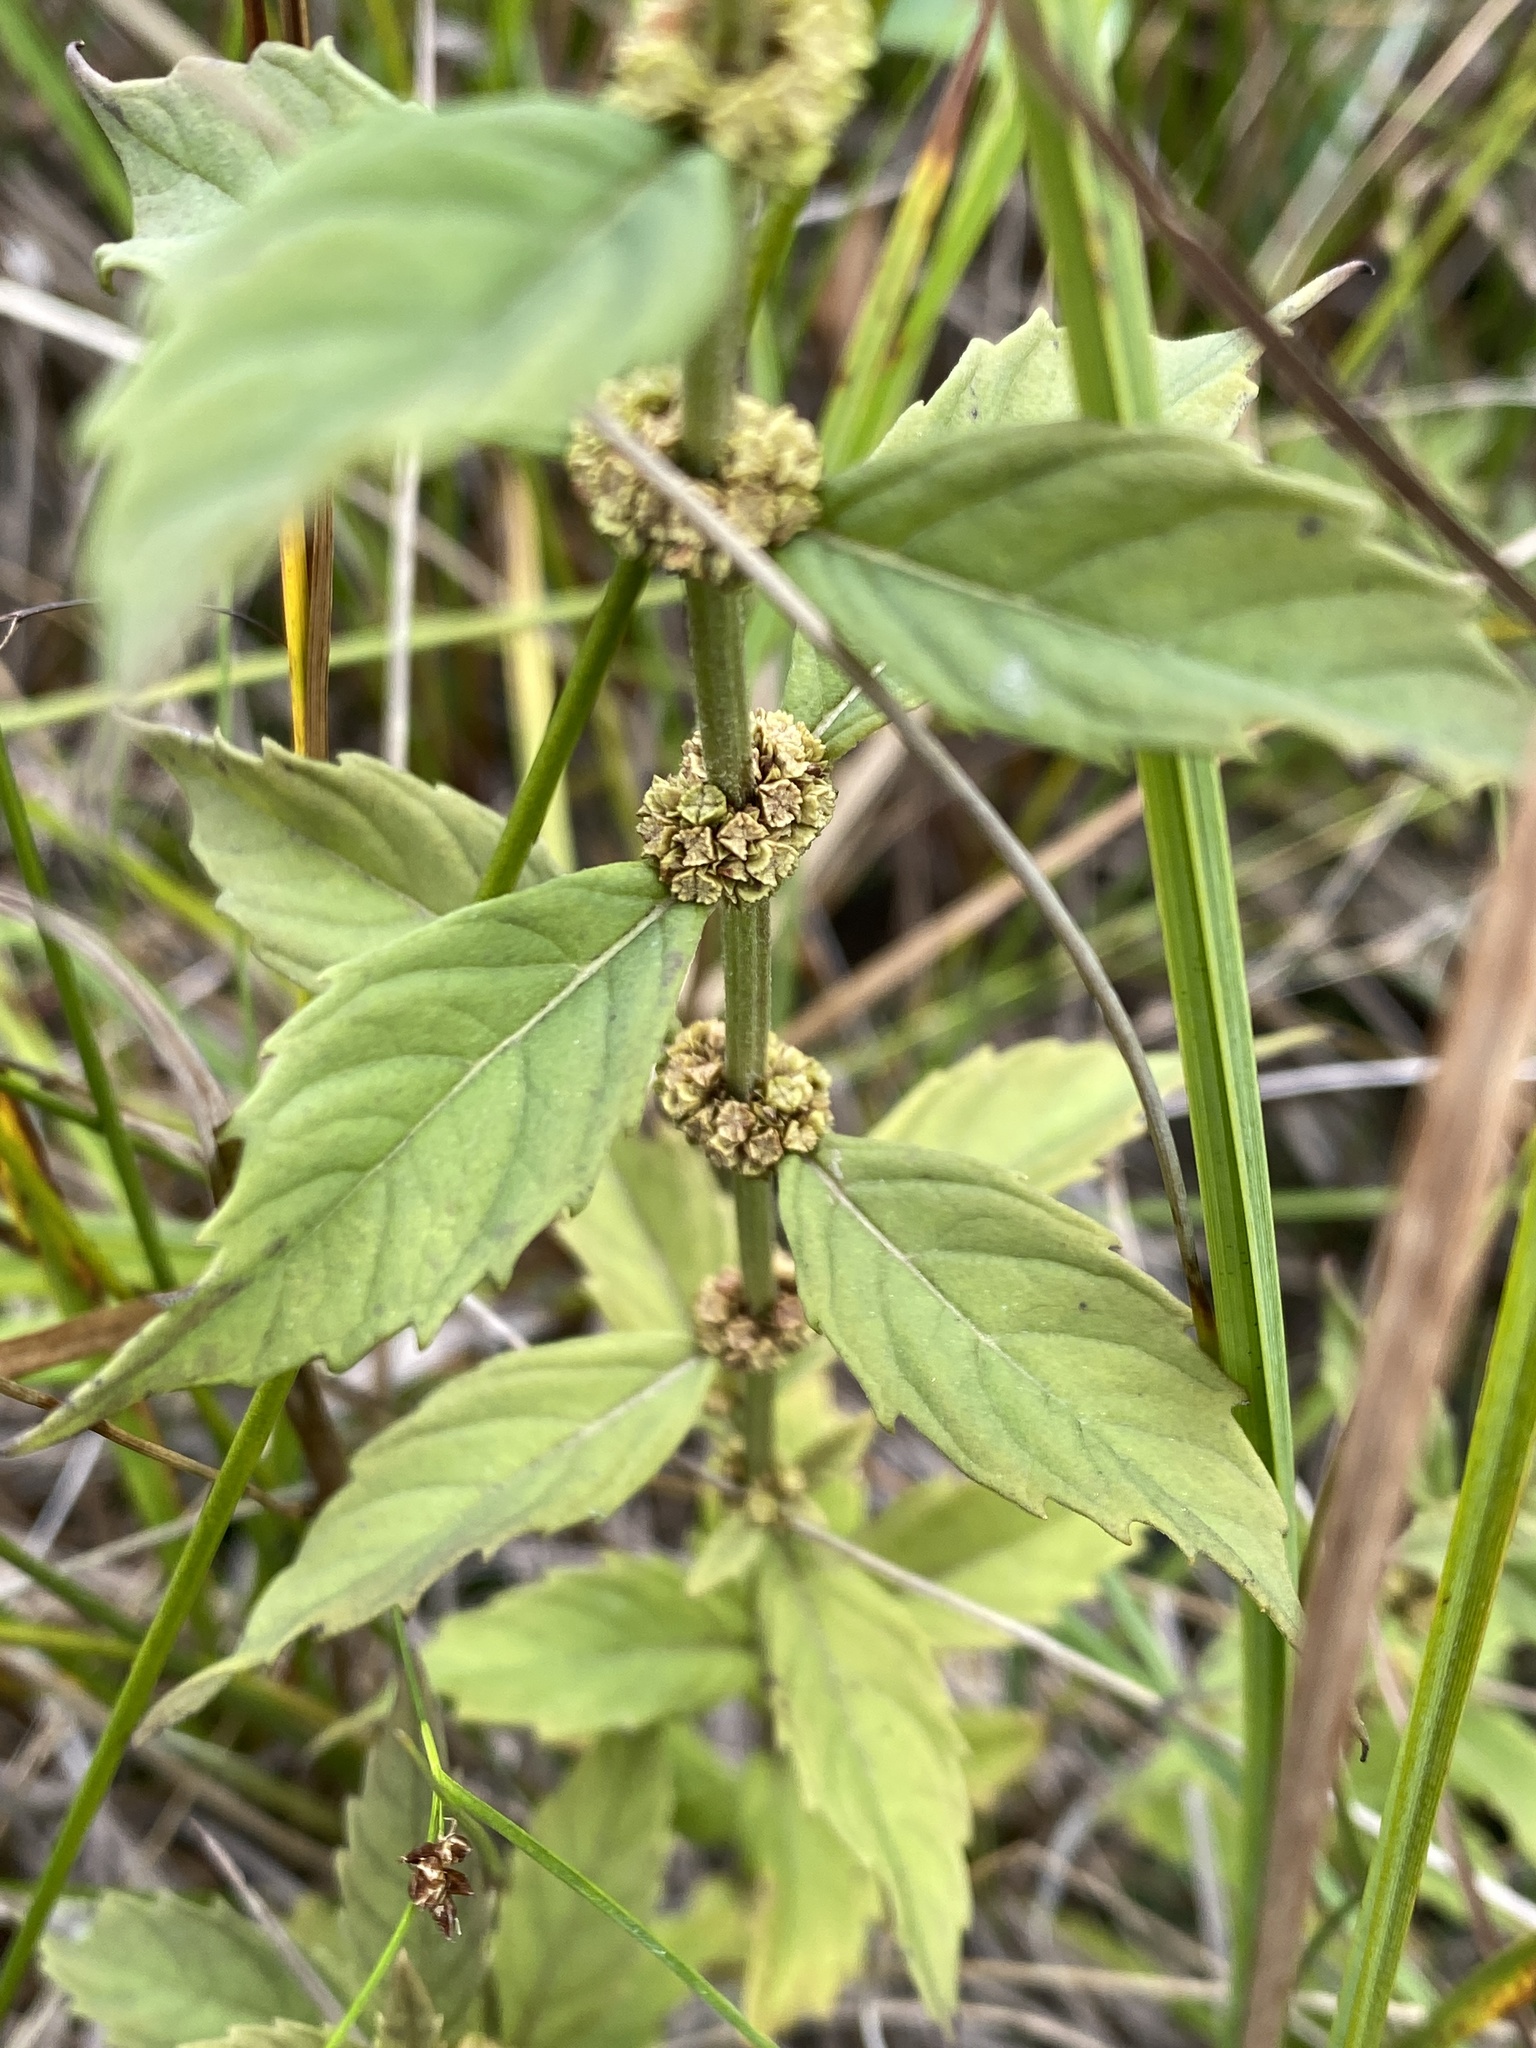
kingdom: Plantae
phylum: Tracheophyta
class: Magnoliopsida
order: Lamiales
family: Lamiaceae
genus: Lycopus
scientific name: Lycopus uniflorus
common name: Northern bugleweed
